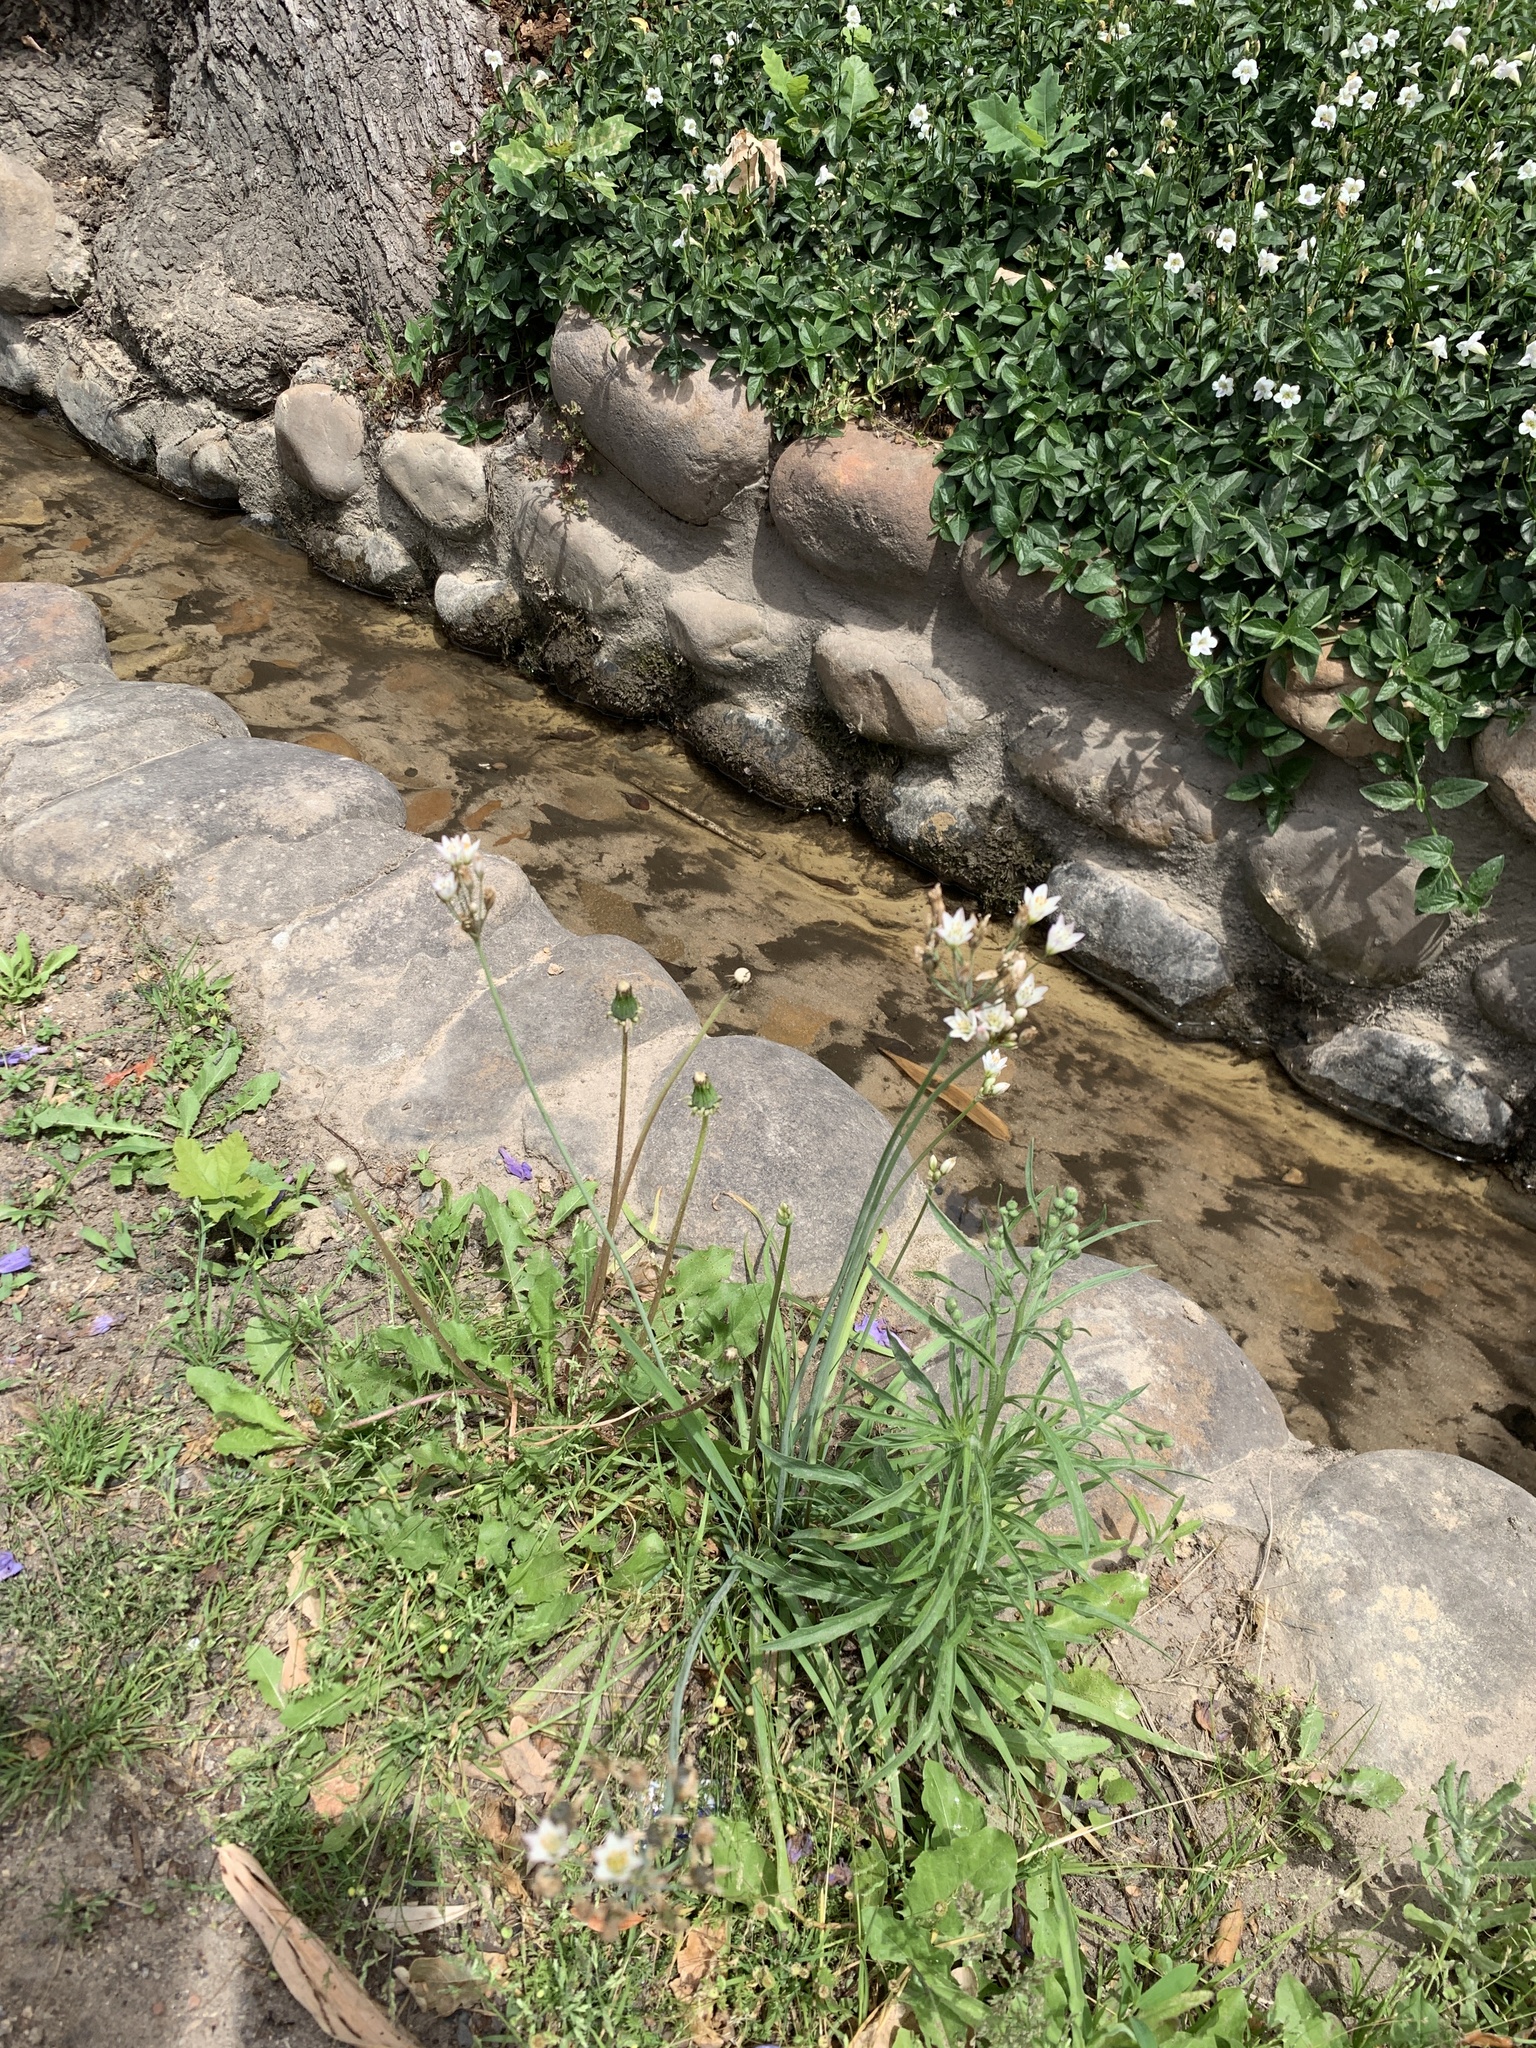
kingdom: Plantae
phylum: Tracheophyta
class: Liliopsida
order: Asparagales
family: Amaryllidaceae
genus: Nothoscordum
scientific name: Nothoscordum gracile
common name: Slender false garlic
